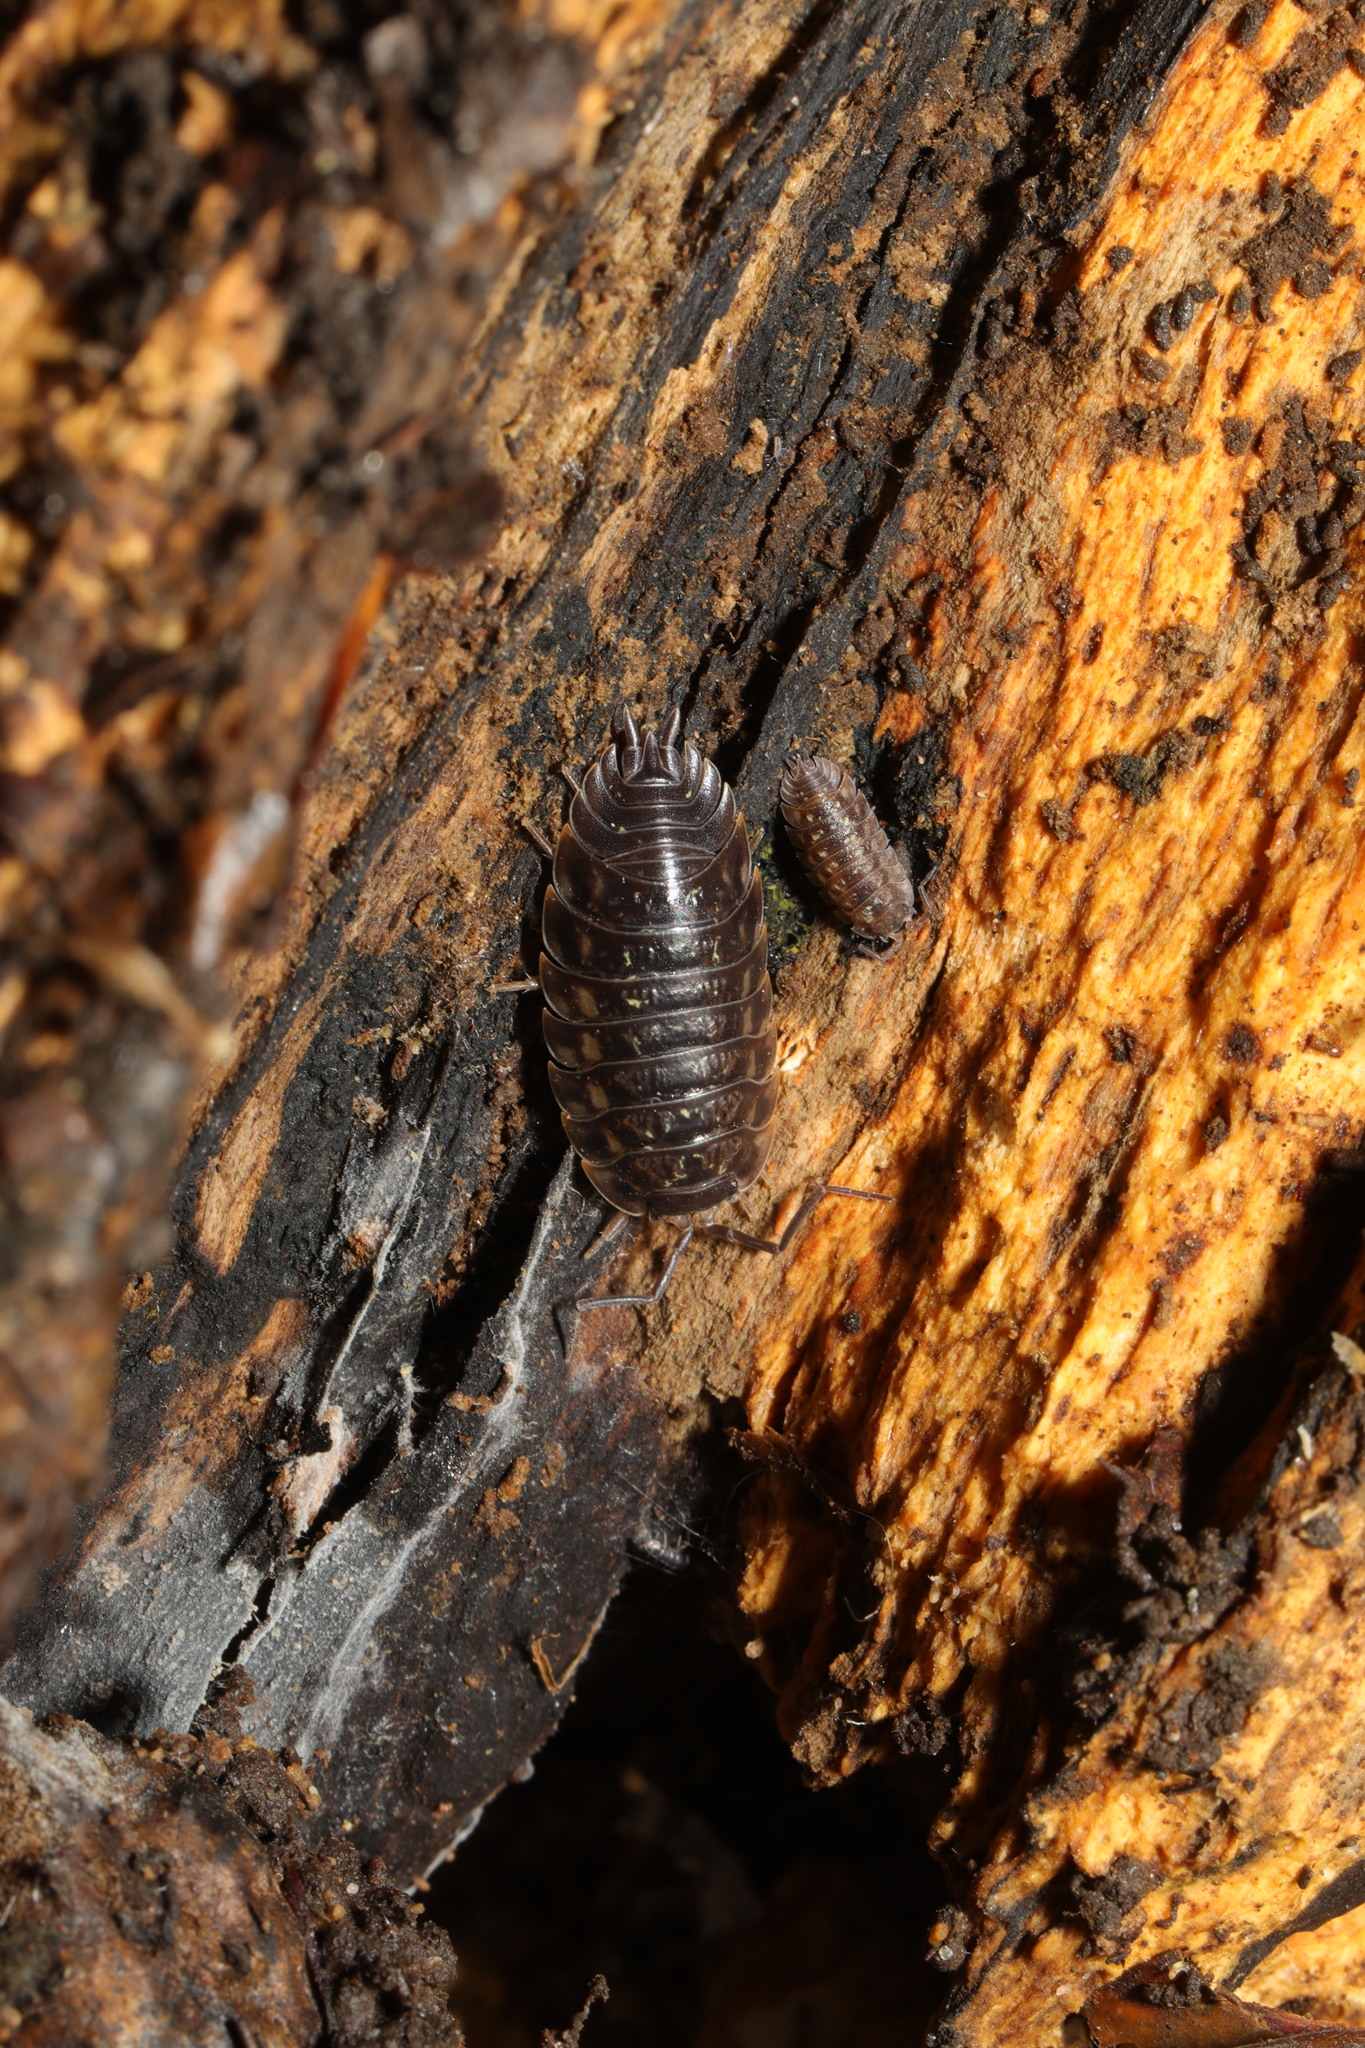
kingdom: Animalia
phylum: Arthropoda
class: Malacostraca
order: Isopoda
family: Oniscidae
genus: Oniscus
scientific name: Oniscus asellus
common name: Common shiny woodlouse
